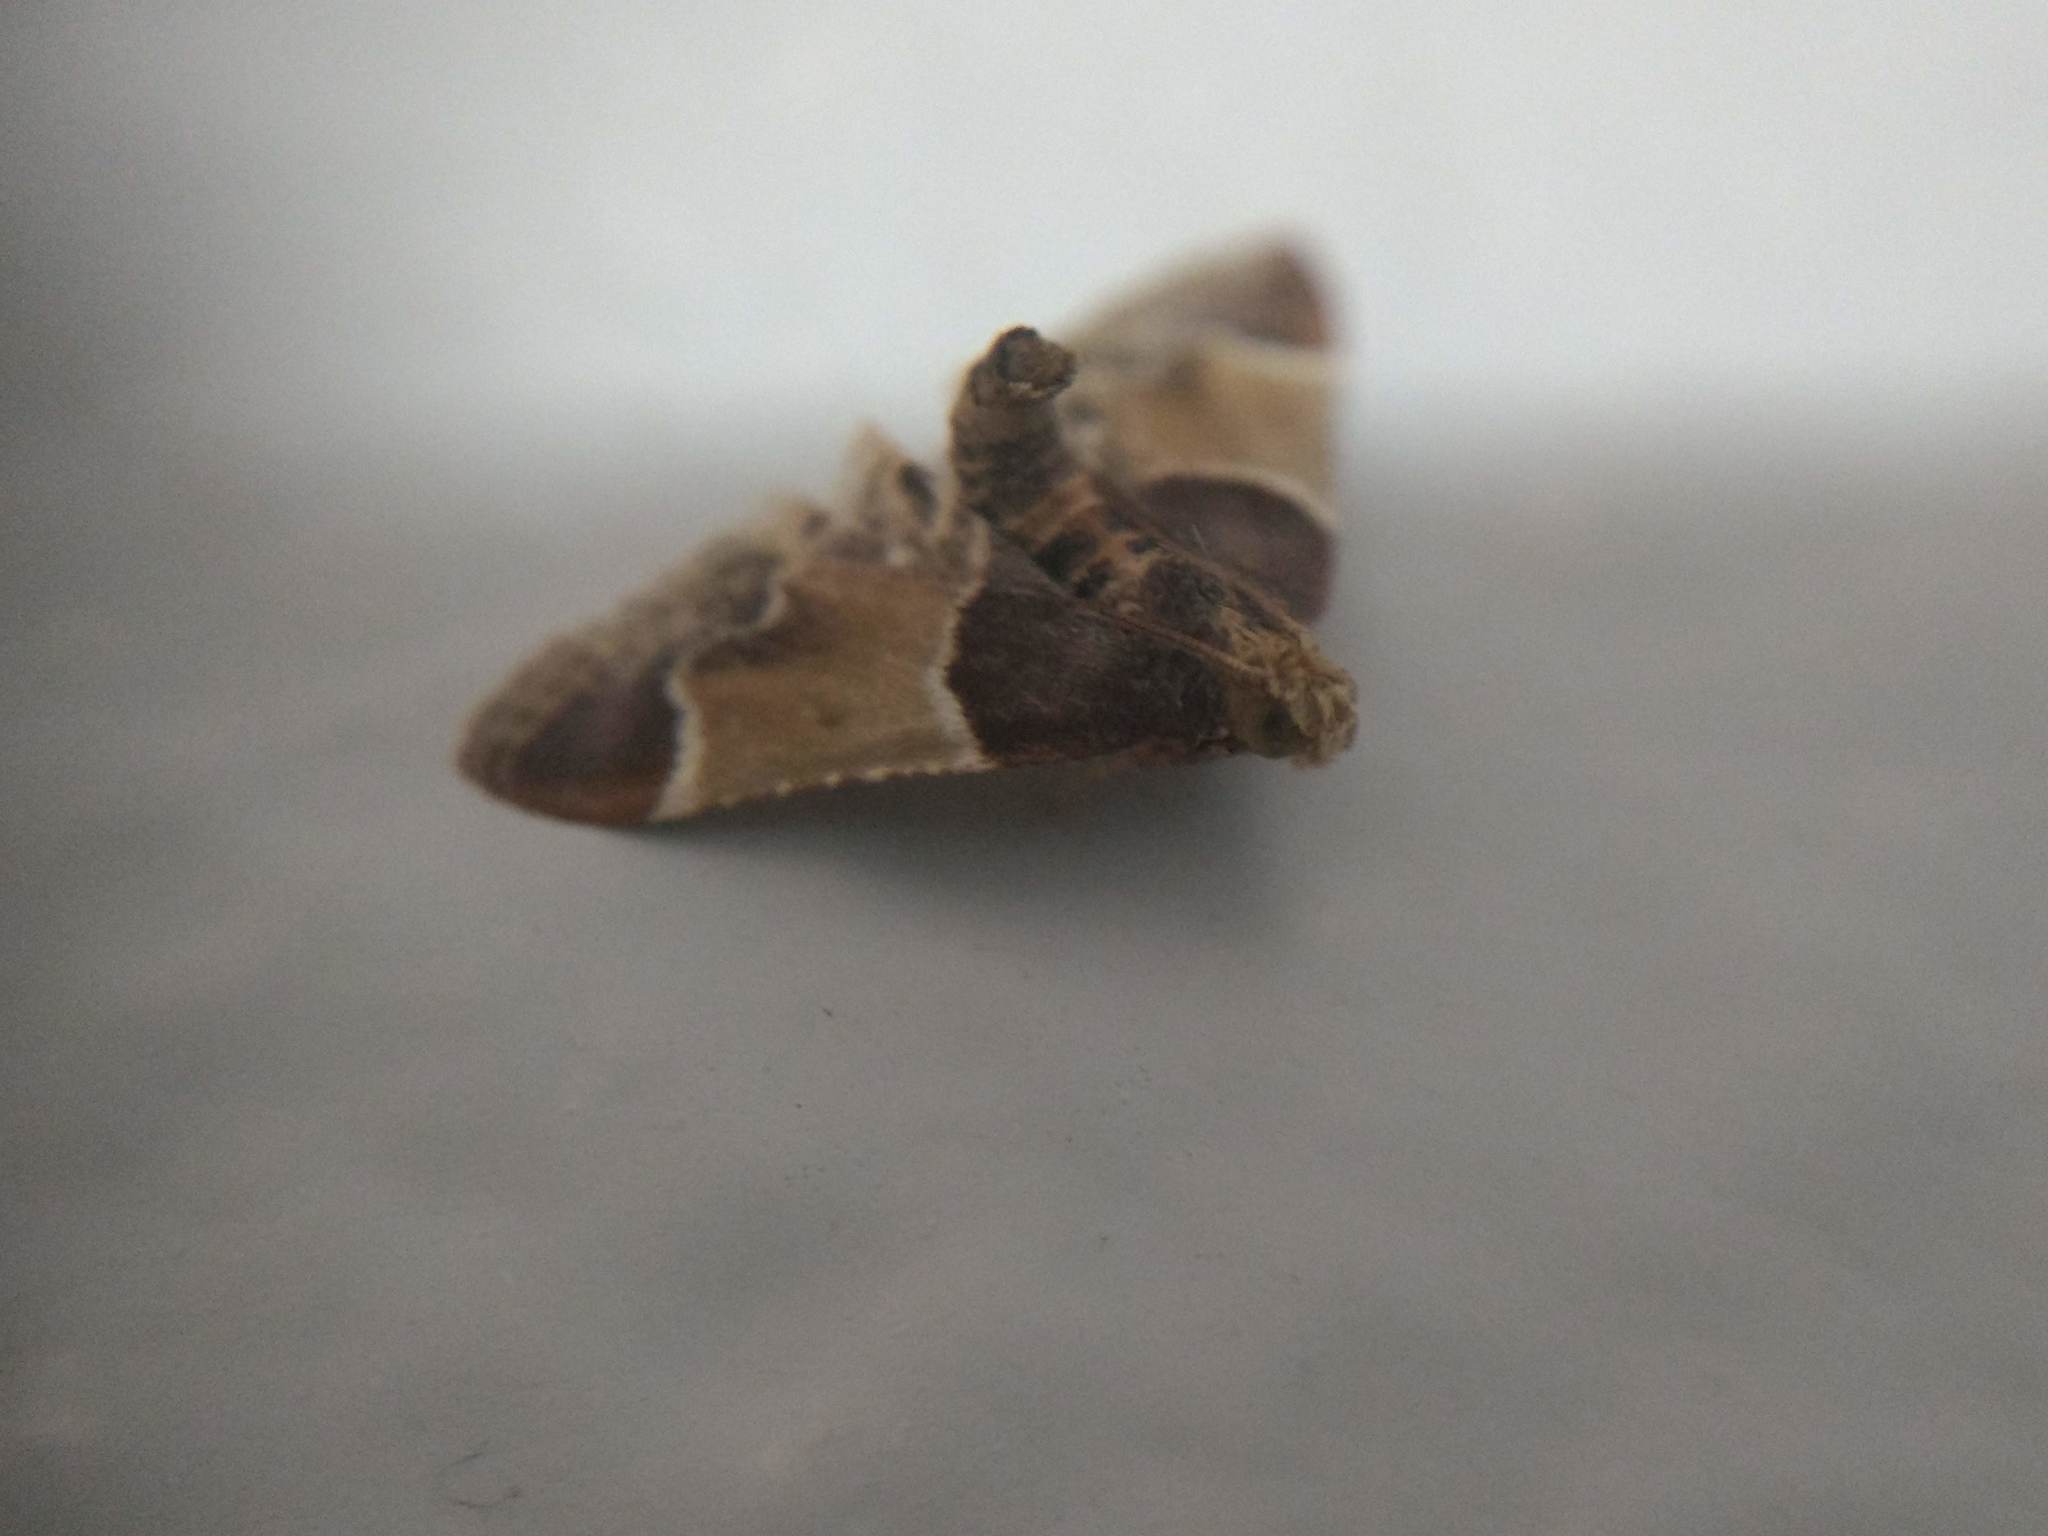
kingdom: Animalia
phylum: Arthropoda
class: Insecta
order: Lepidoptera
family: Pyralidae
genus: Pyralis
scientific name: Pyralis farinalis
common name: Meal moth
